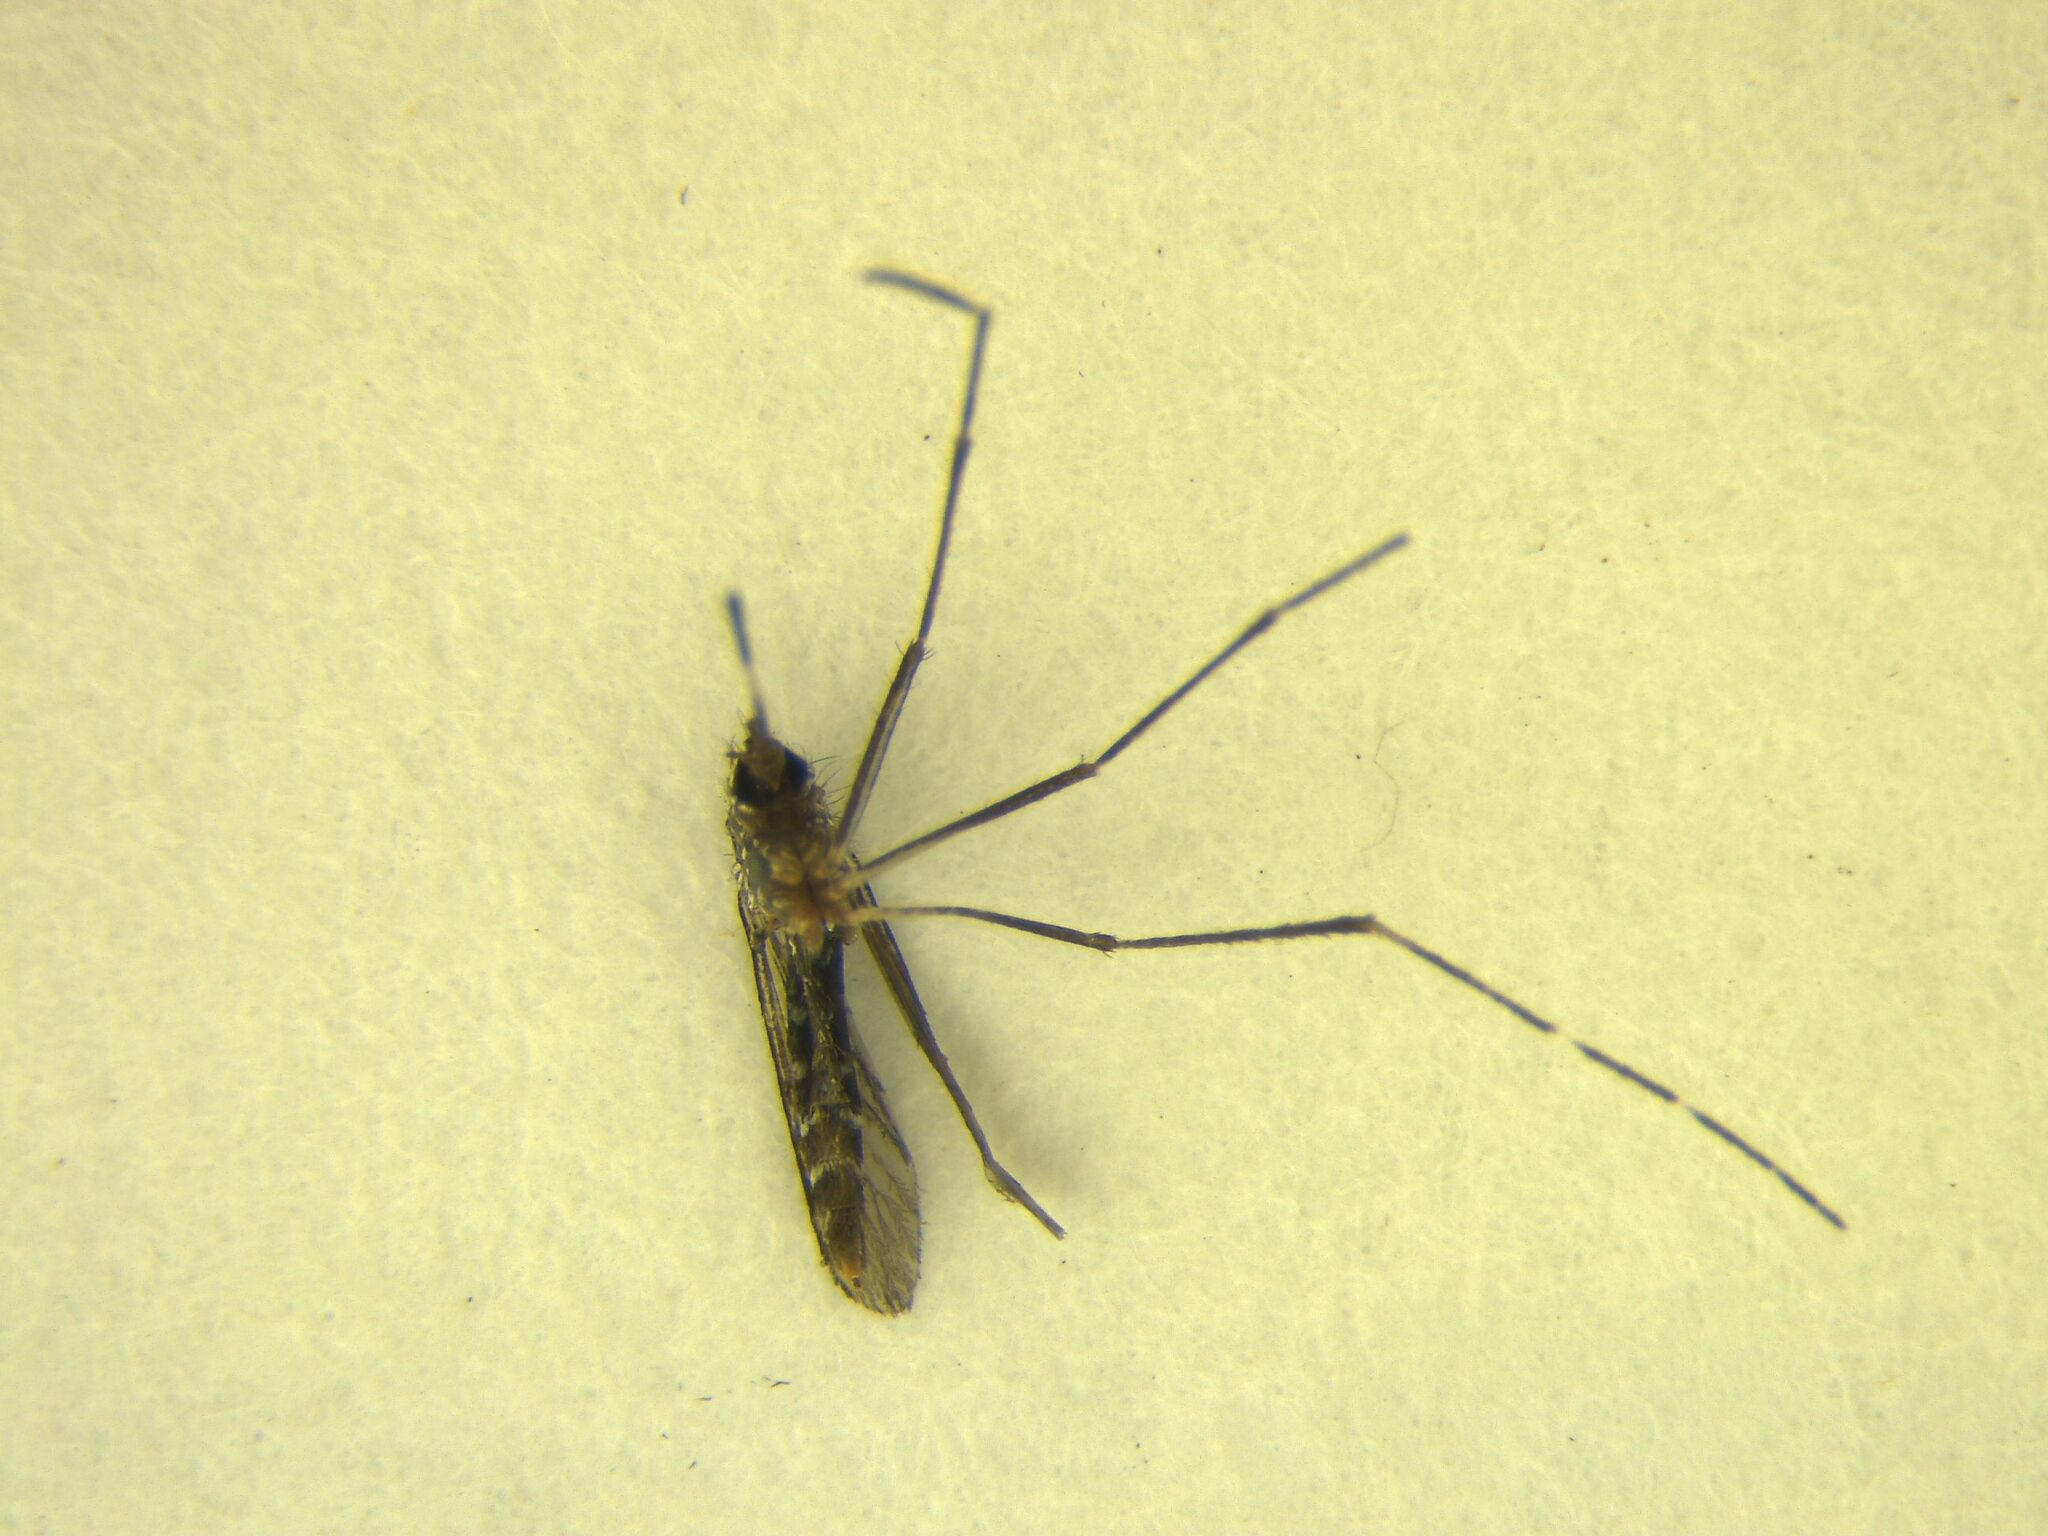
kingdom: Animalia
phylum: Arthropoda
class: Insecta
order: Diptera
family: Culicidae
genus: Aedes
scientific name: Aedes notoscriptus
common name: Australian backyard mosquito
